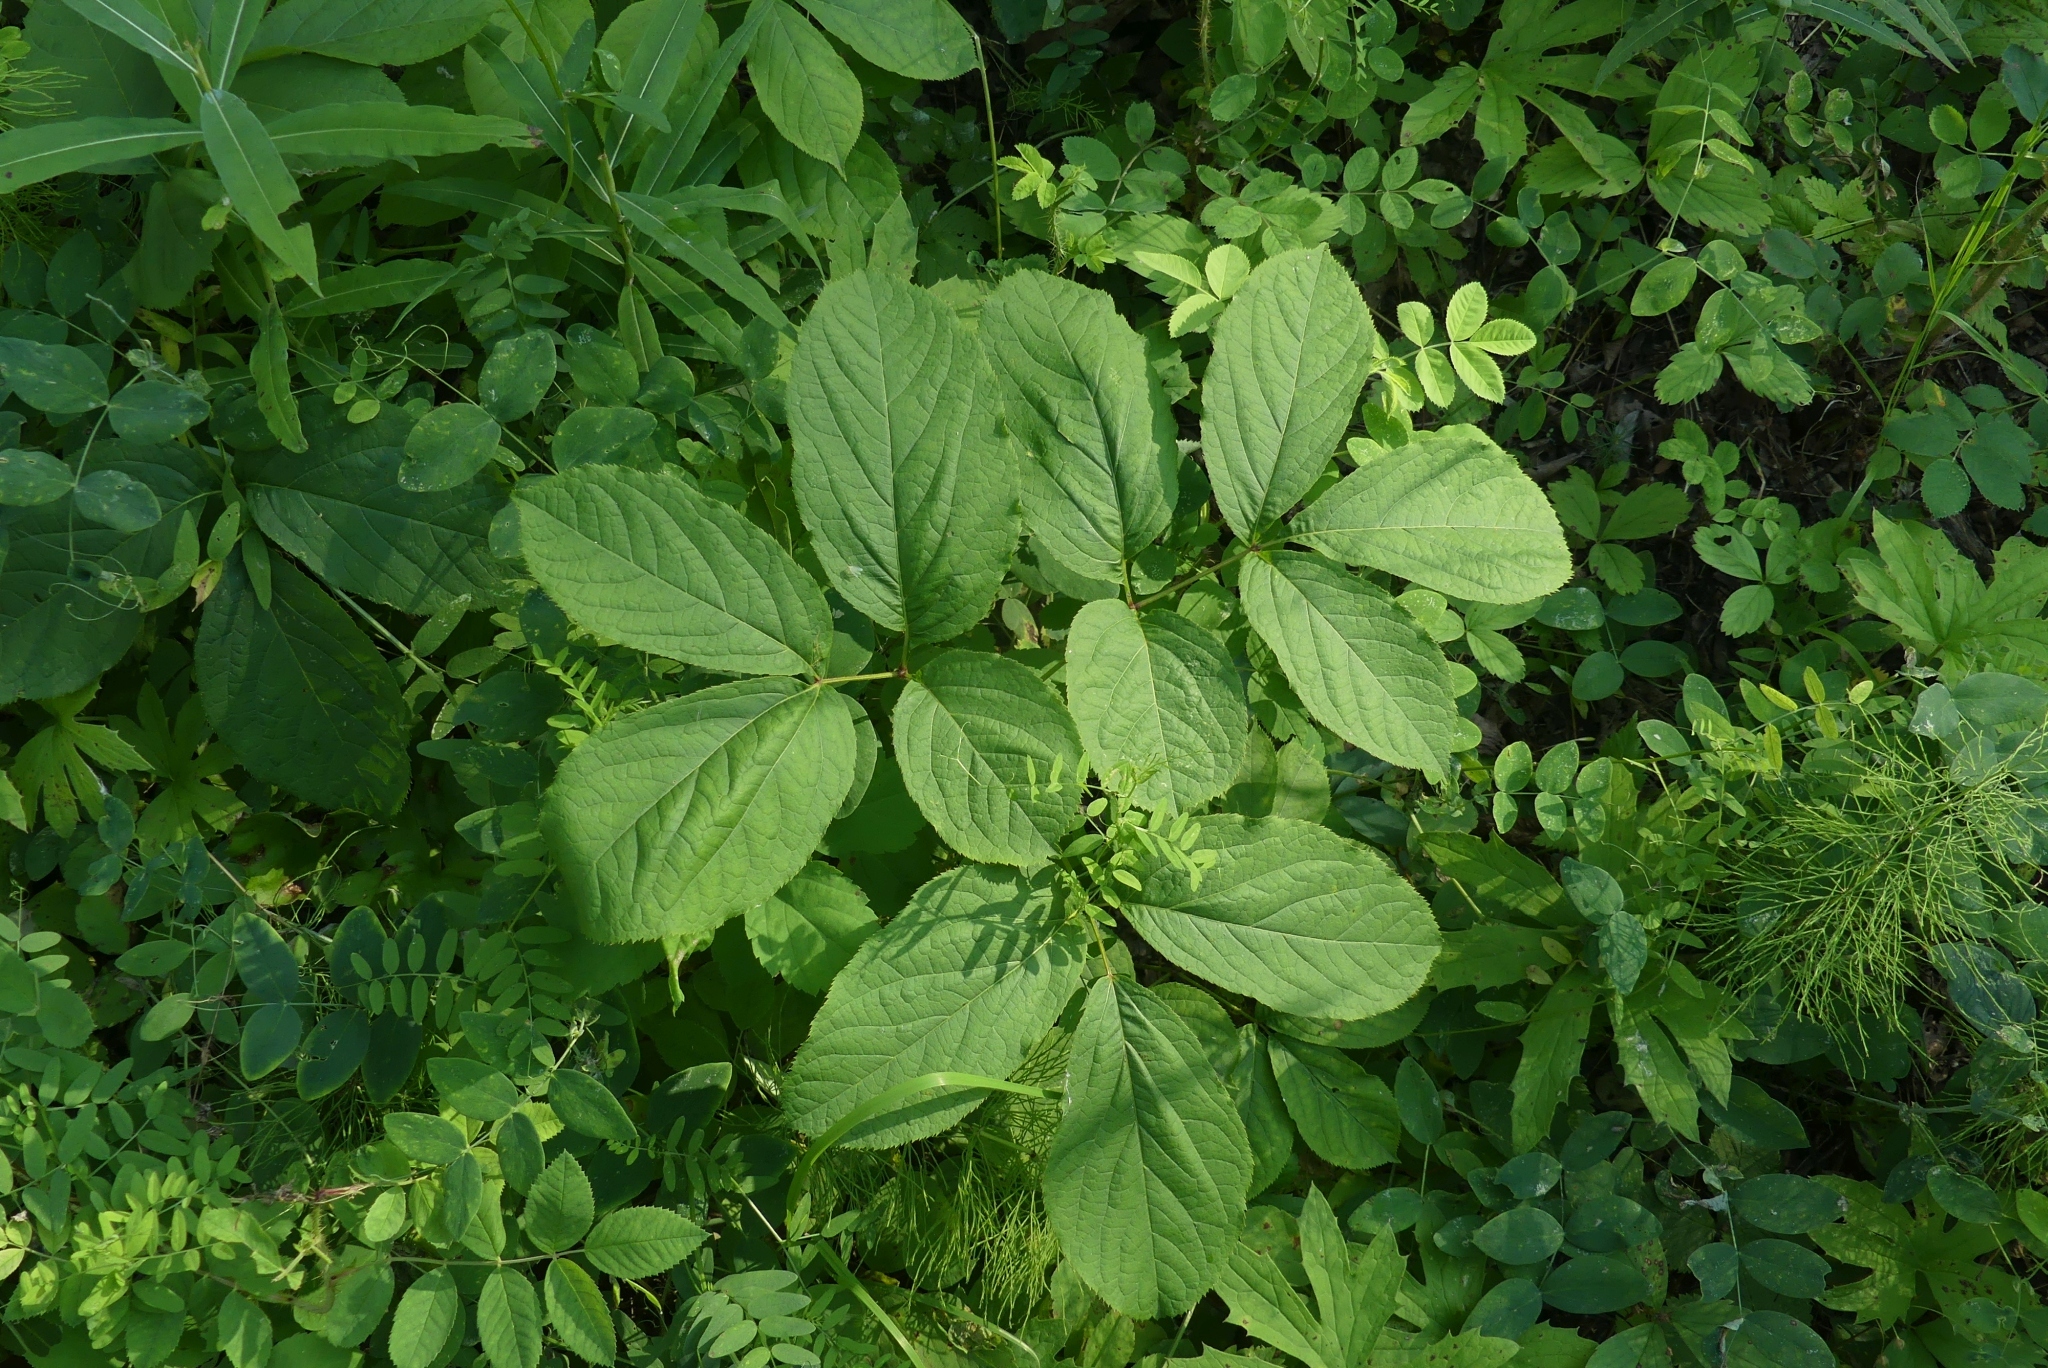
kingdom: Plantae
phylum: Tracheophyta
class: Magnoliopsida
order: Apiales
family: Araliaceae
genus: Aralia
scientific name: Aralia nudicaulis
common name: Wild sarsaparilla
